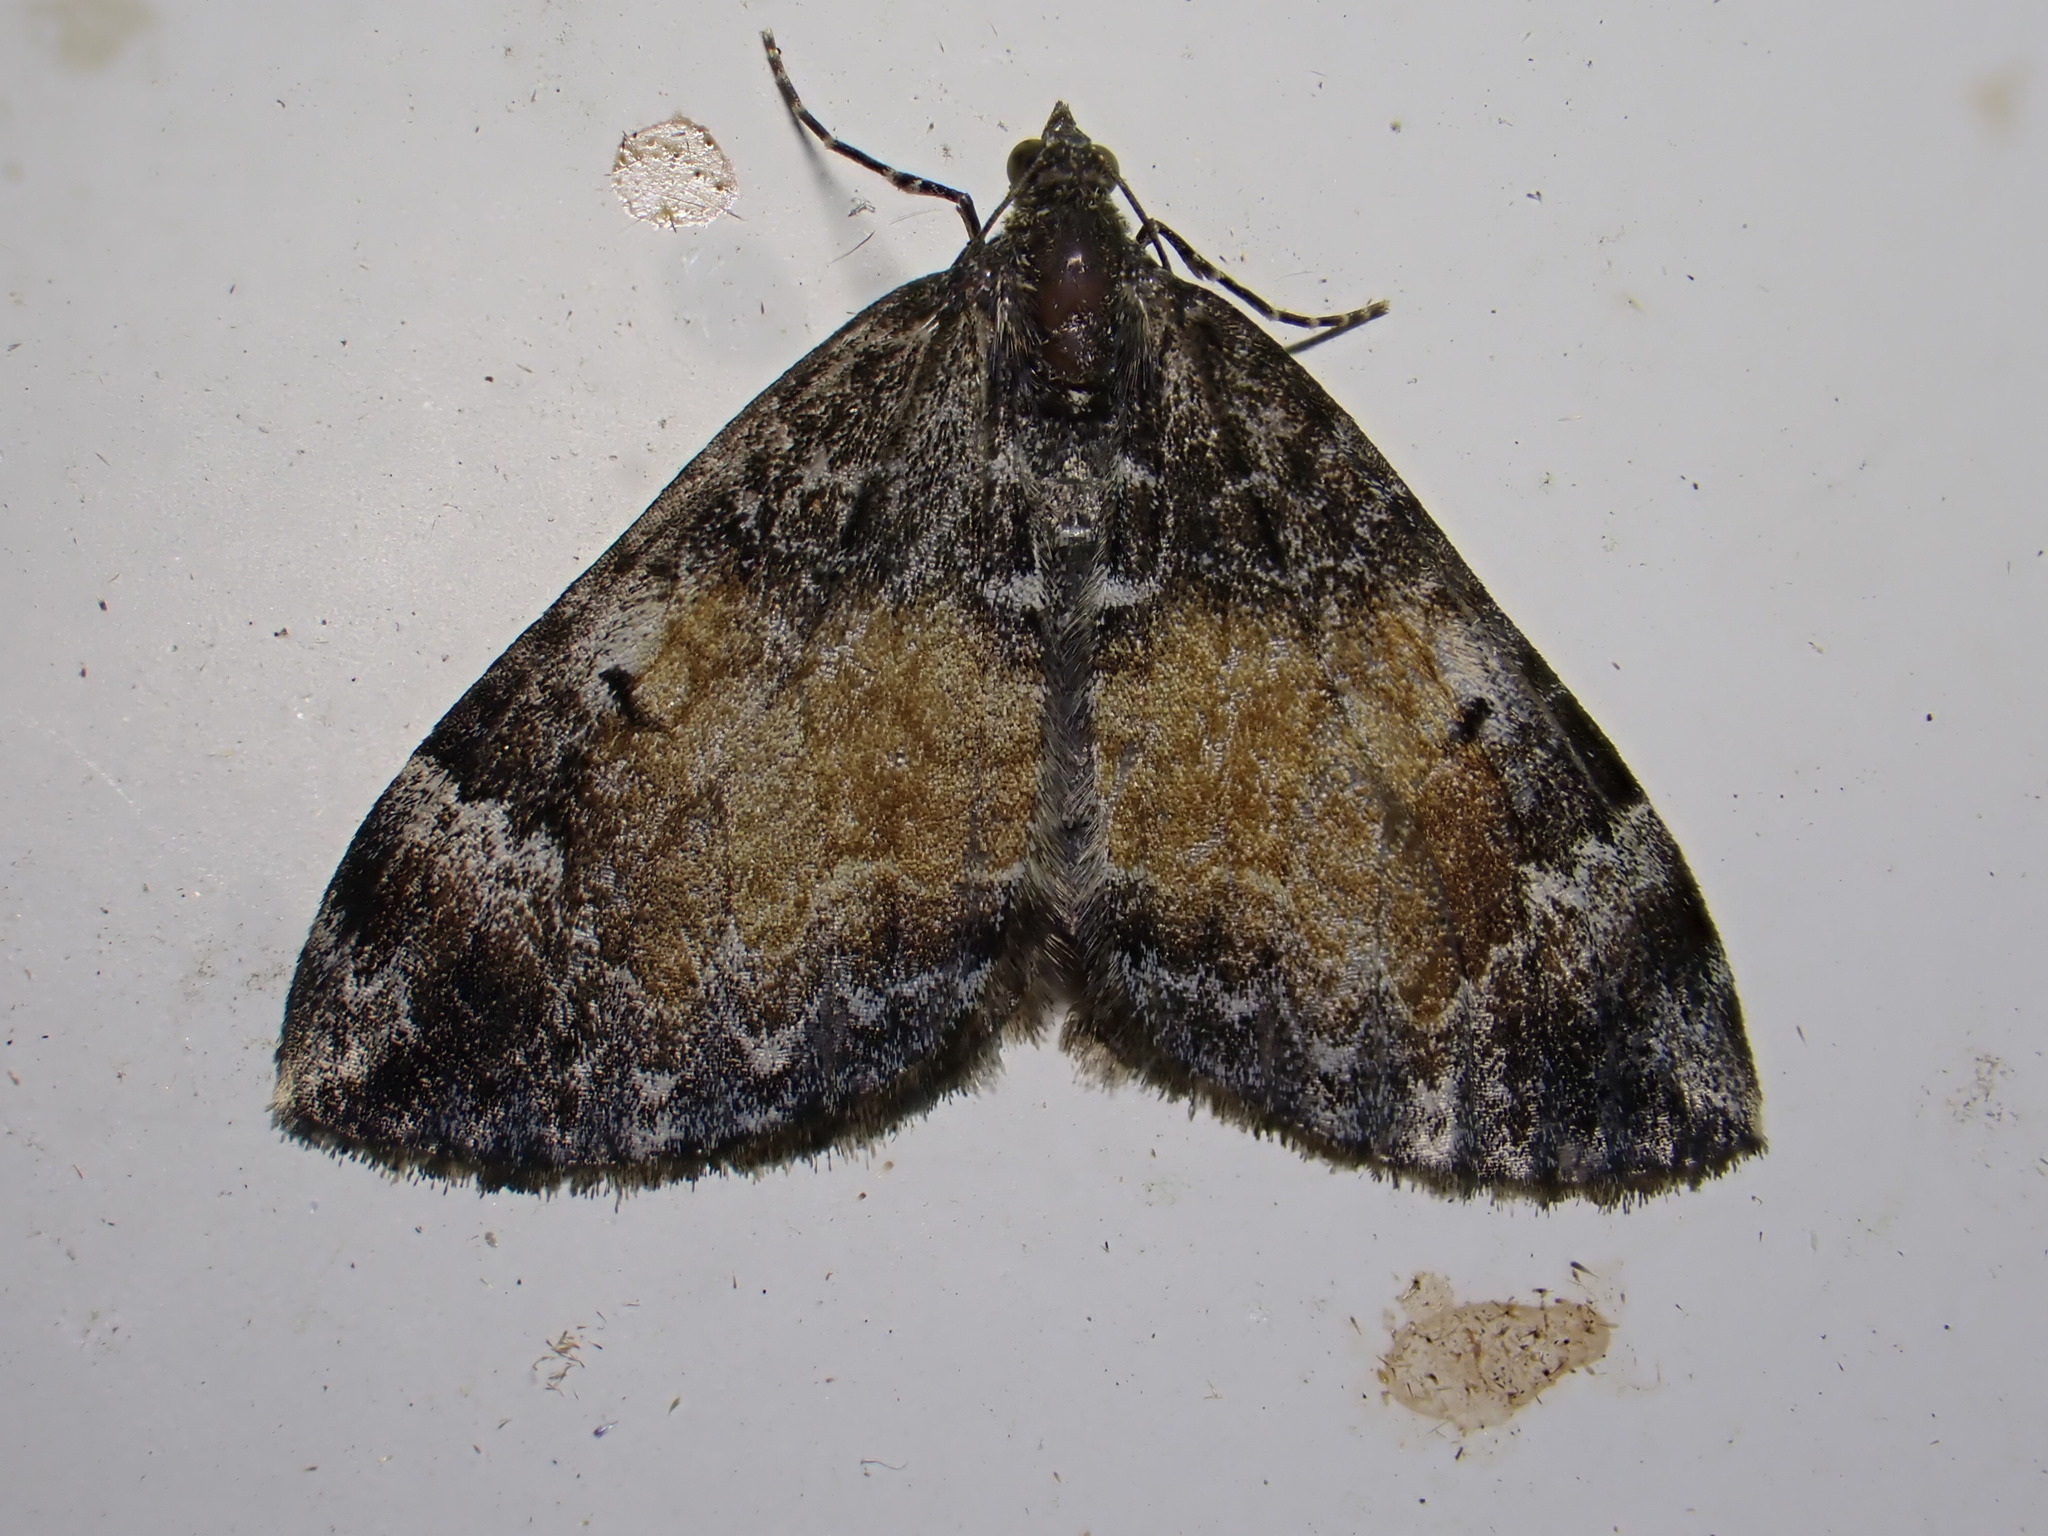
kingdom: Animalia
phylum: Arthropoda
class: Insecta
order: Lepidoptera
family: Geometridae
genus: Dysstroma
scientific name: Dysstroma truncata
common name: Common marbled carpet
